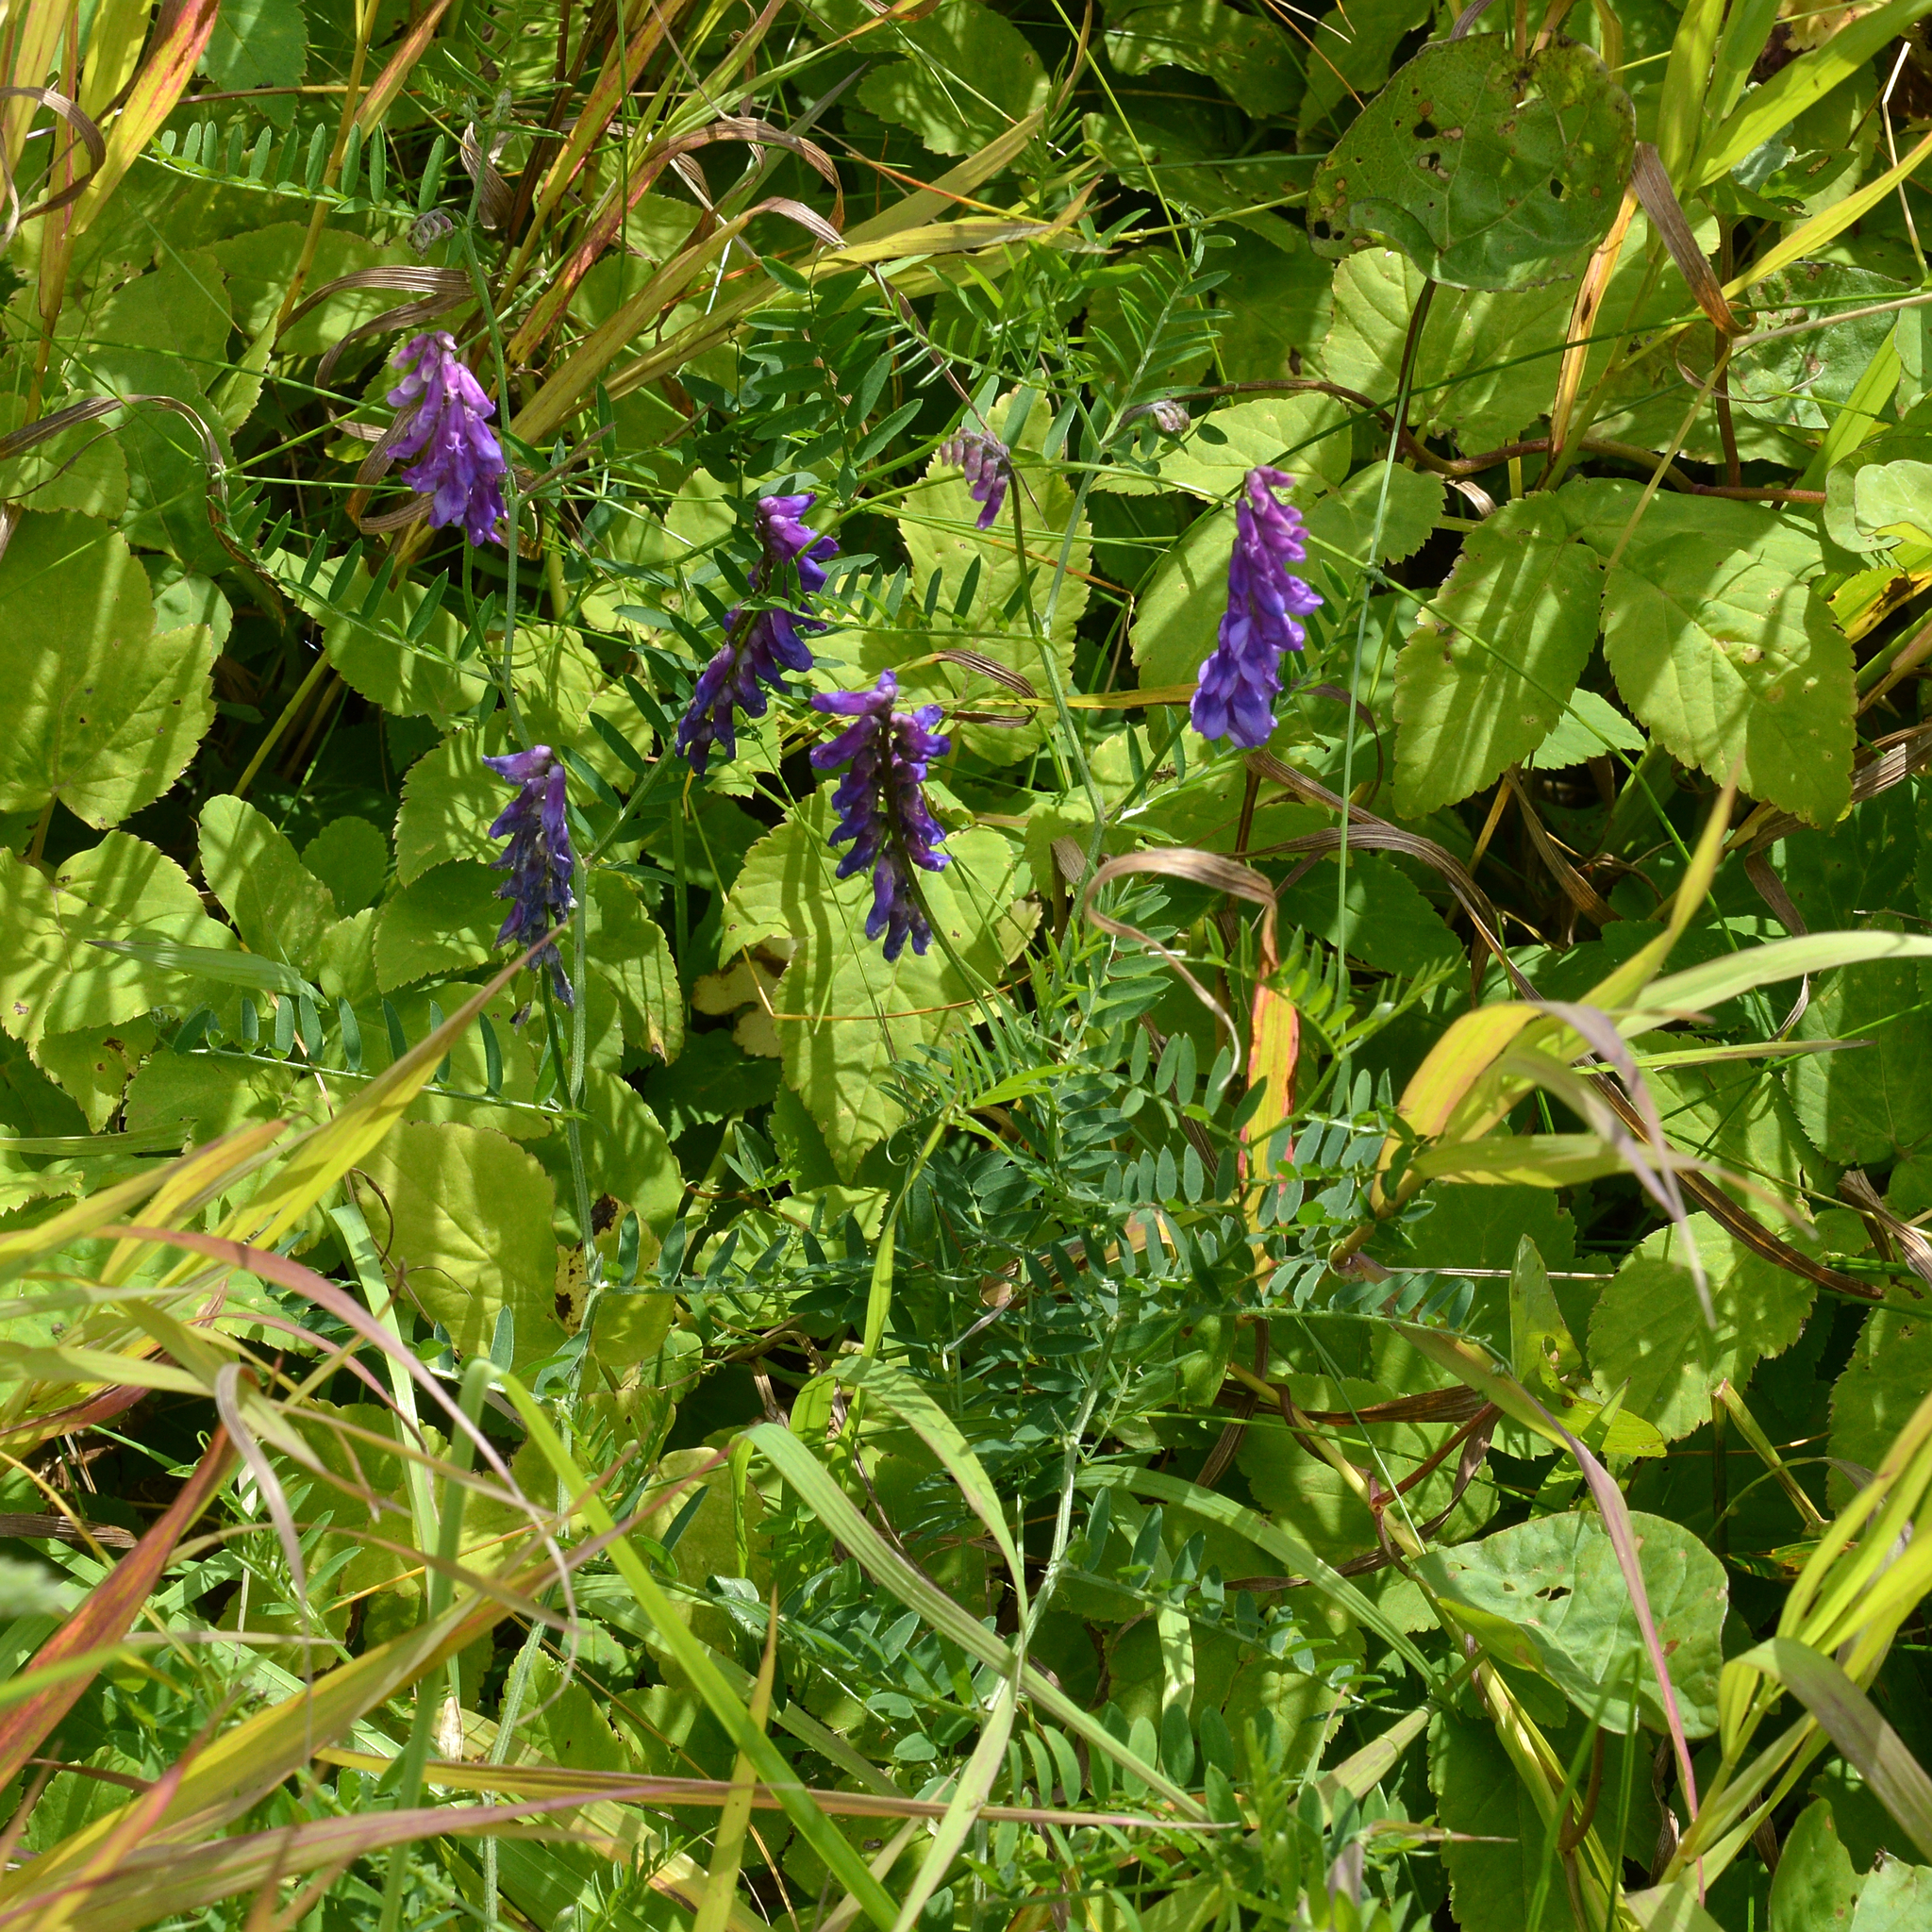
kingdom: Plantae
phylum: Tracheophyta
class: Magnoliopsida
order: Fabales
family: Fabaceae
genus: Vicia
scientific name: Vicia cracca
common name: Bird vetch
